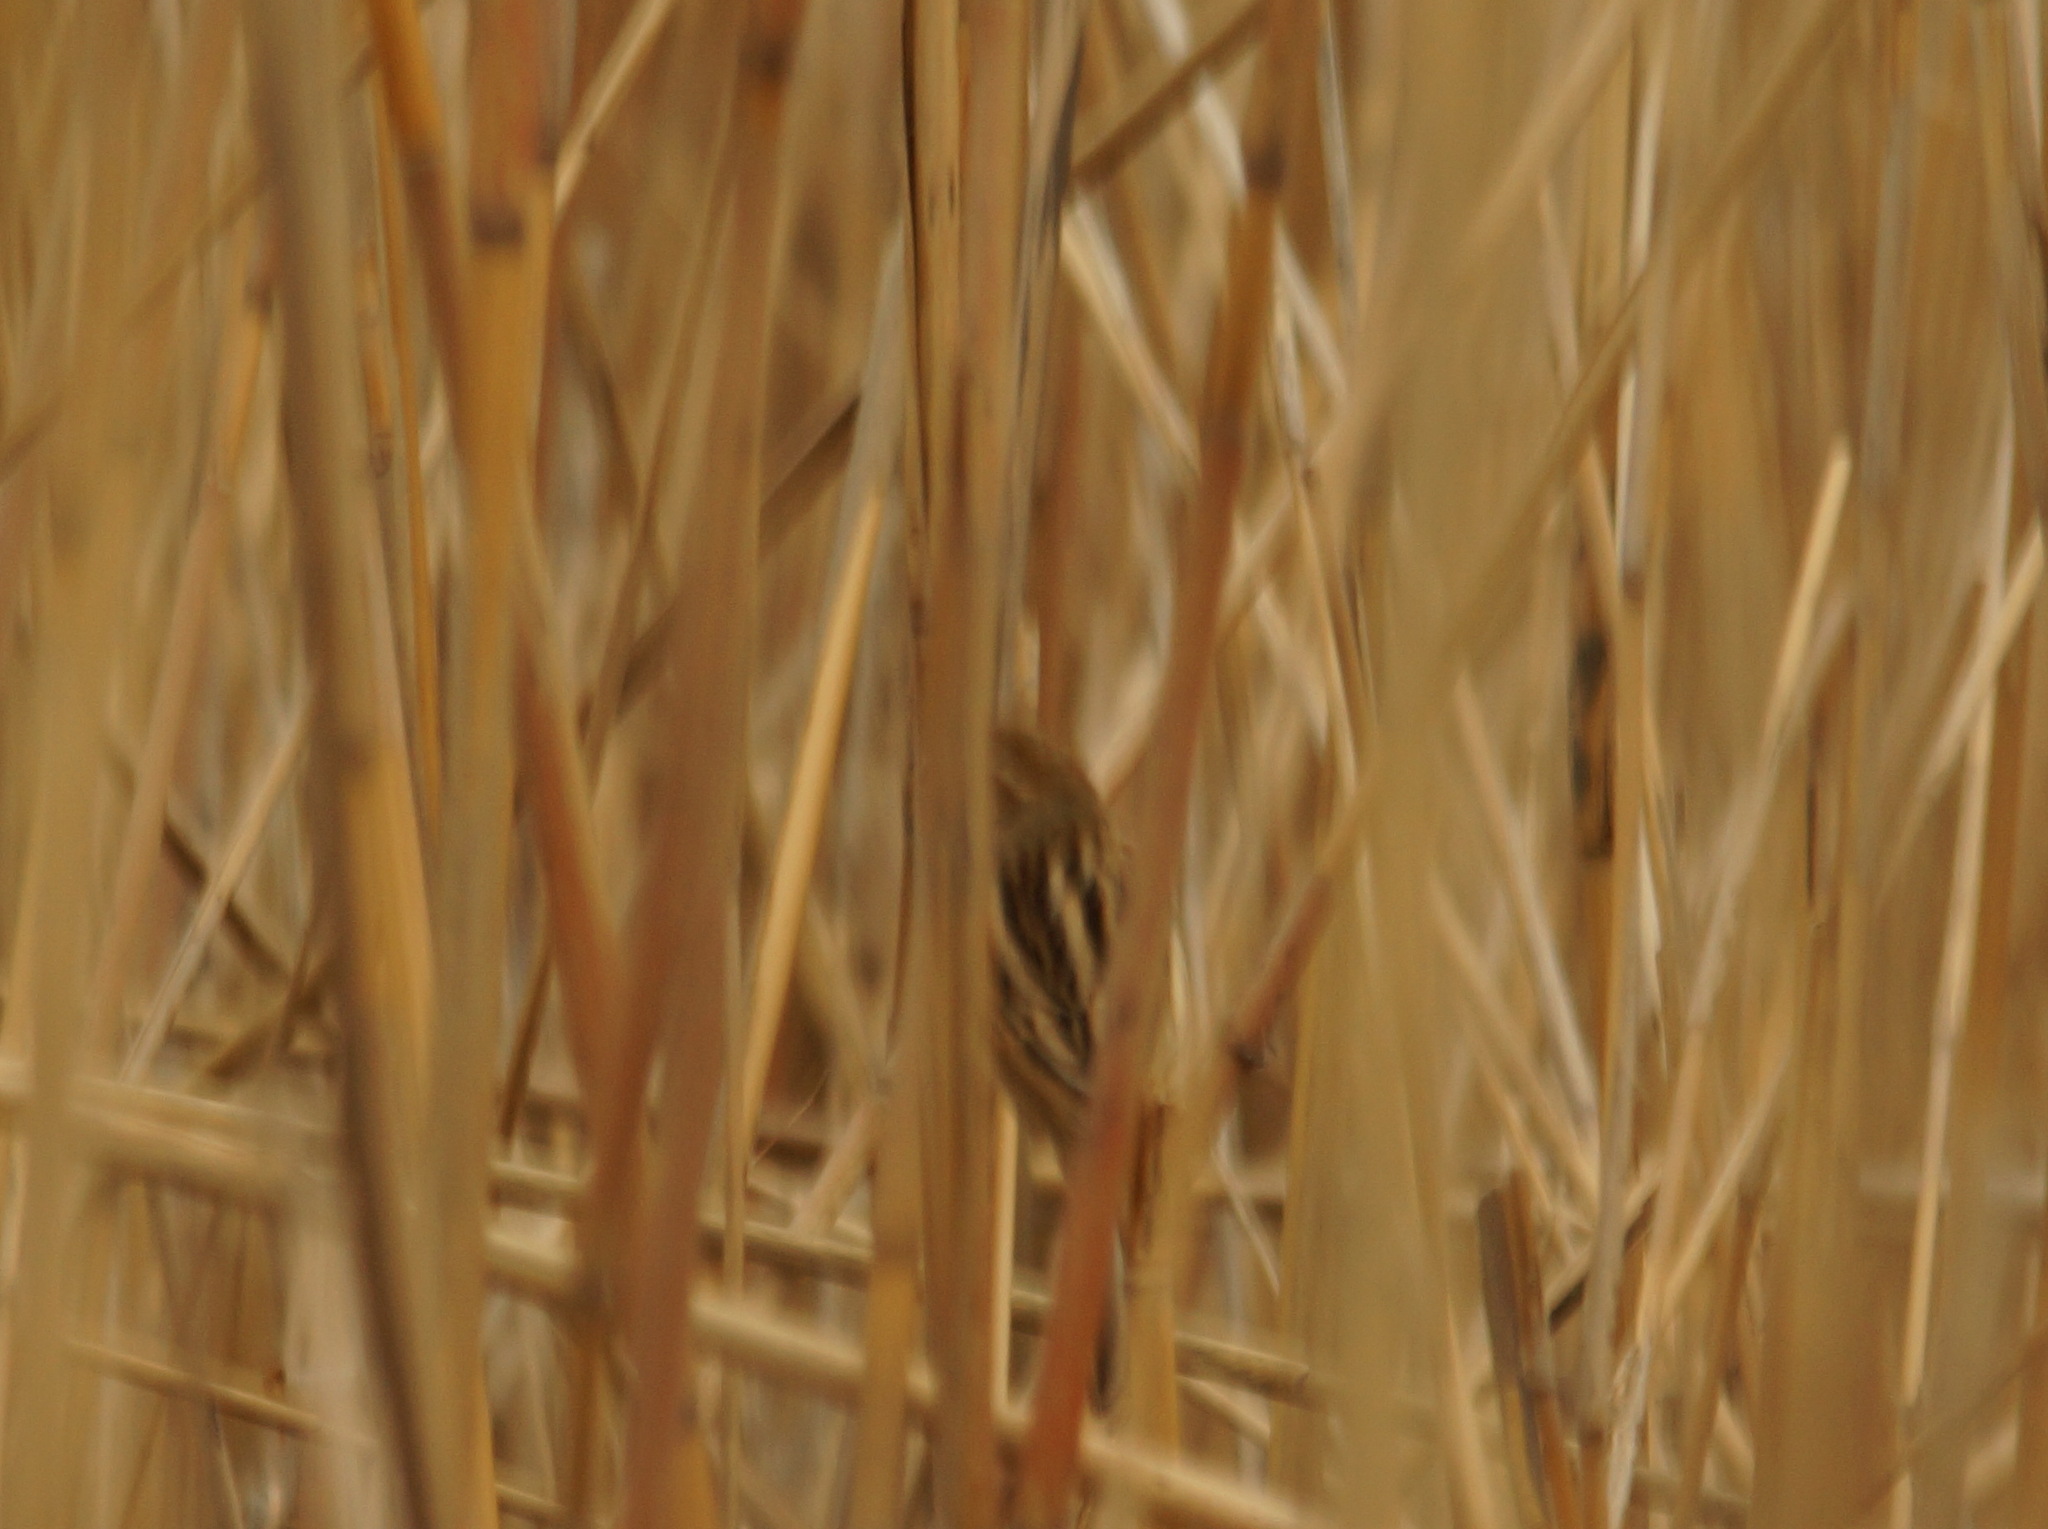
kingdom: Animalia
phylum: Chordata
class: Aves
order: Passeriformes
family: Emberizidae
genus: Emberiza
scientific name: Emberiza schoeniclus
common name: Reed bunting
